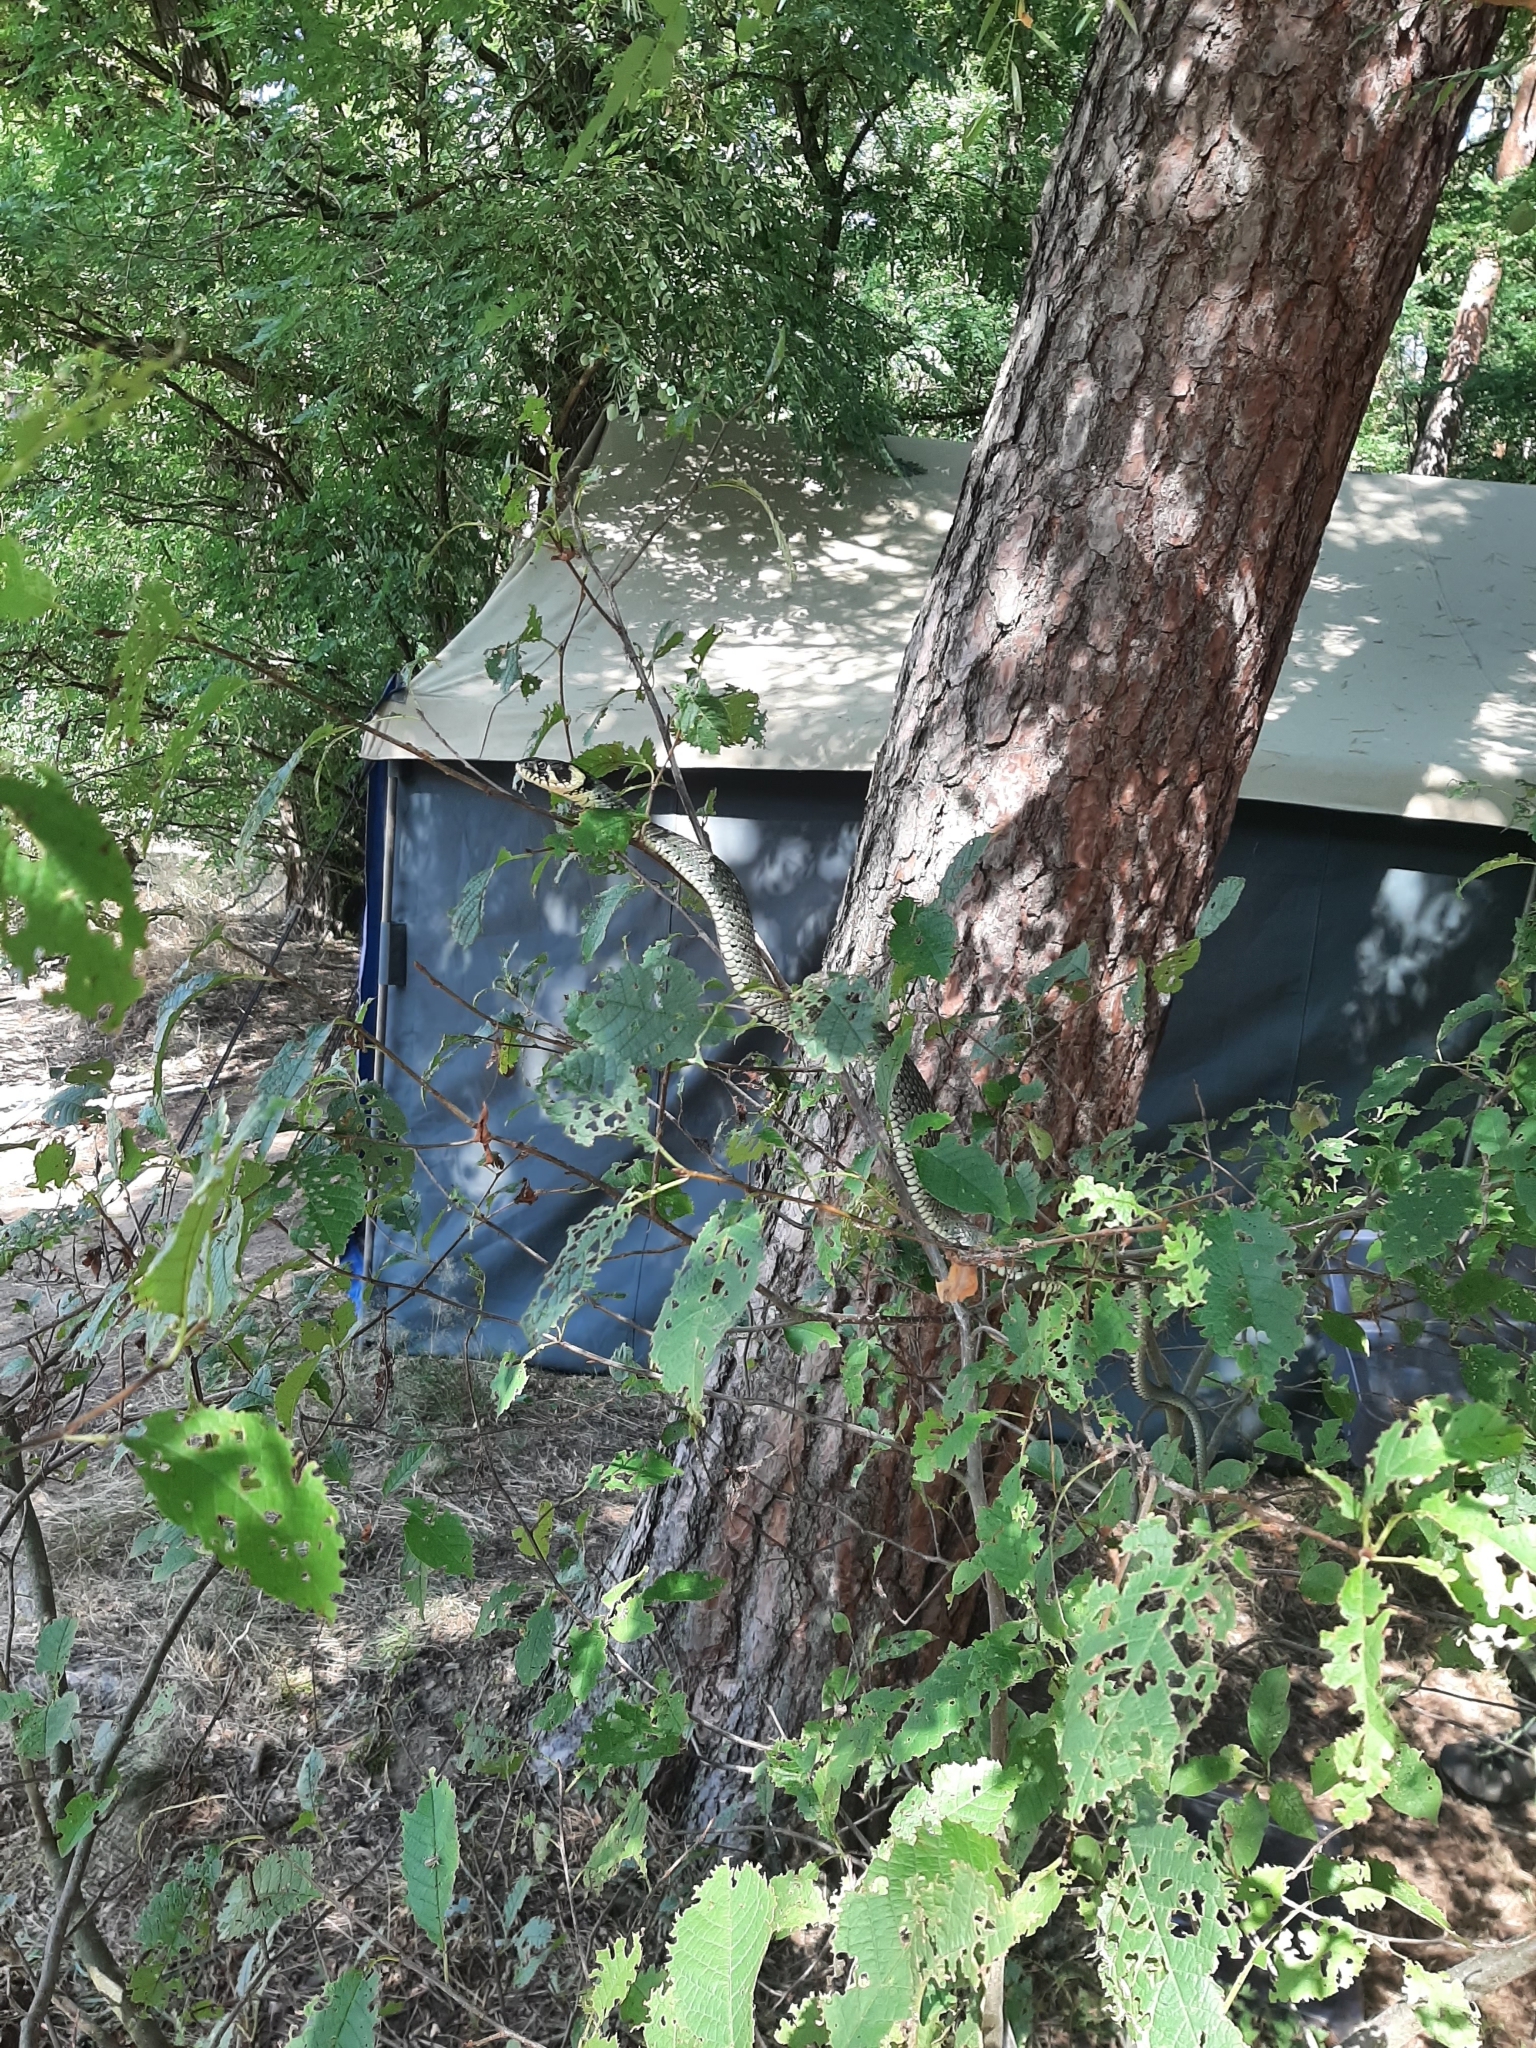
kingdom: Animalia
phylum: Chordata
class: Squamata
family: Colubridae
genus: Natrix
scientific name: Natrix natrix
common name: Grass snake
